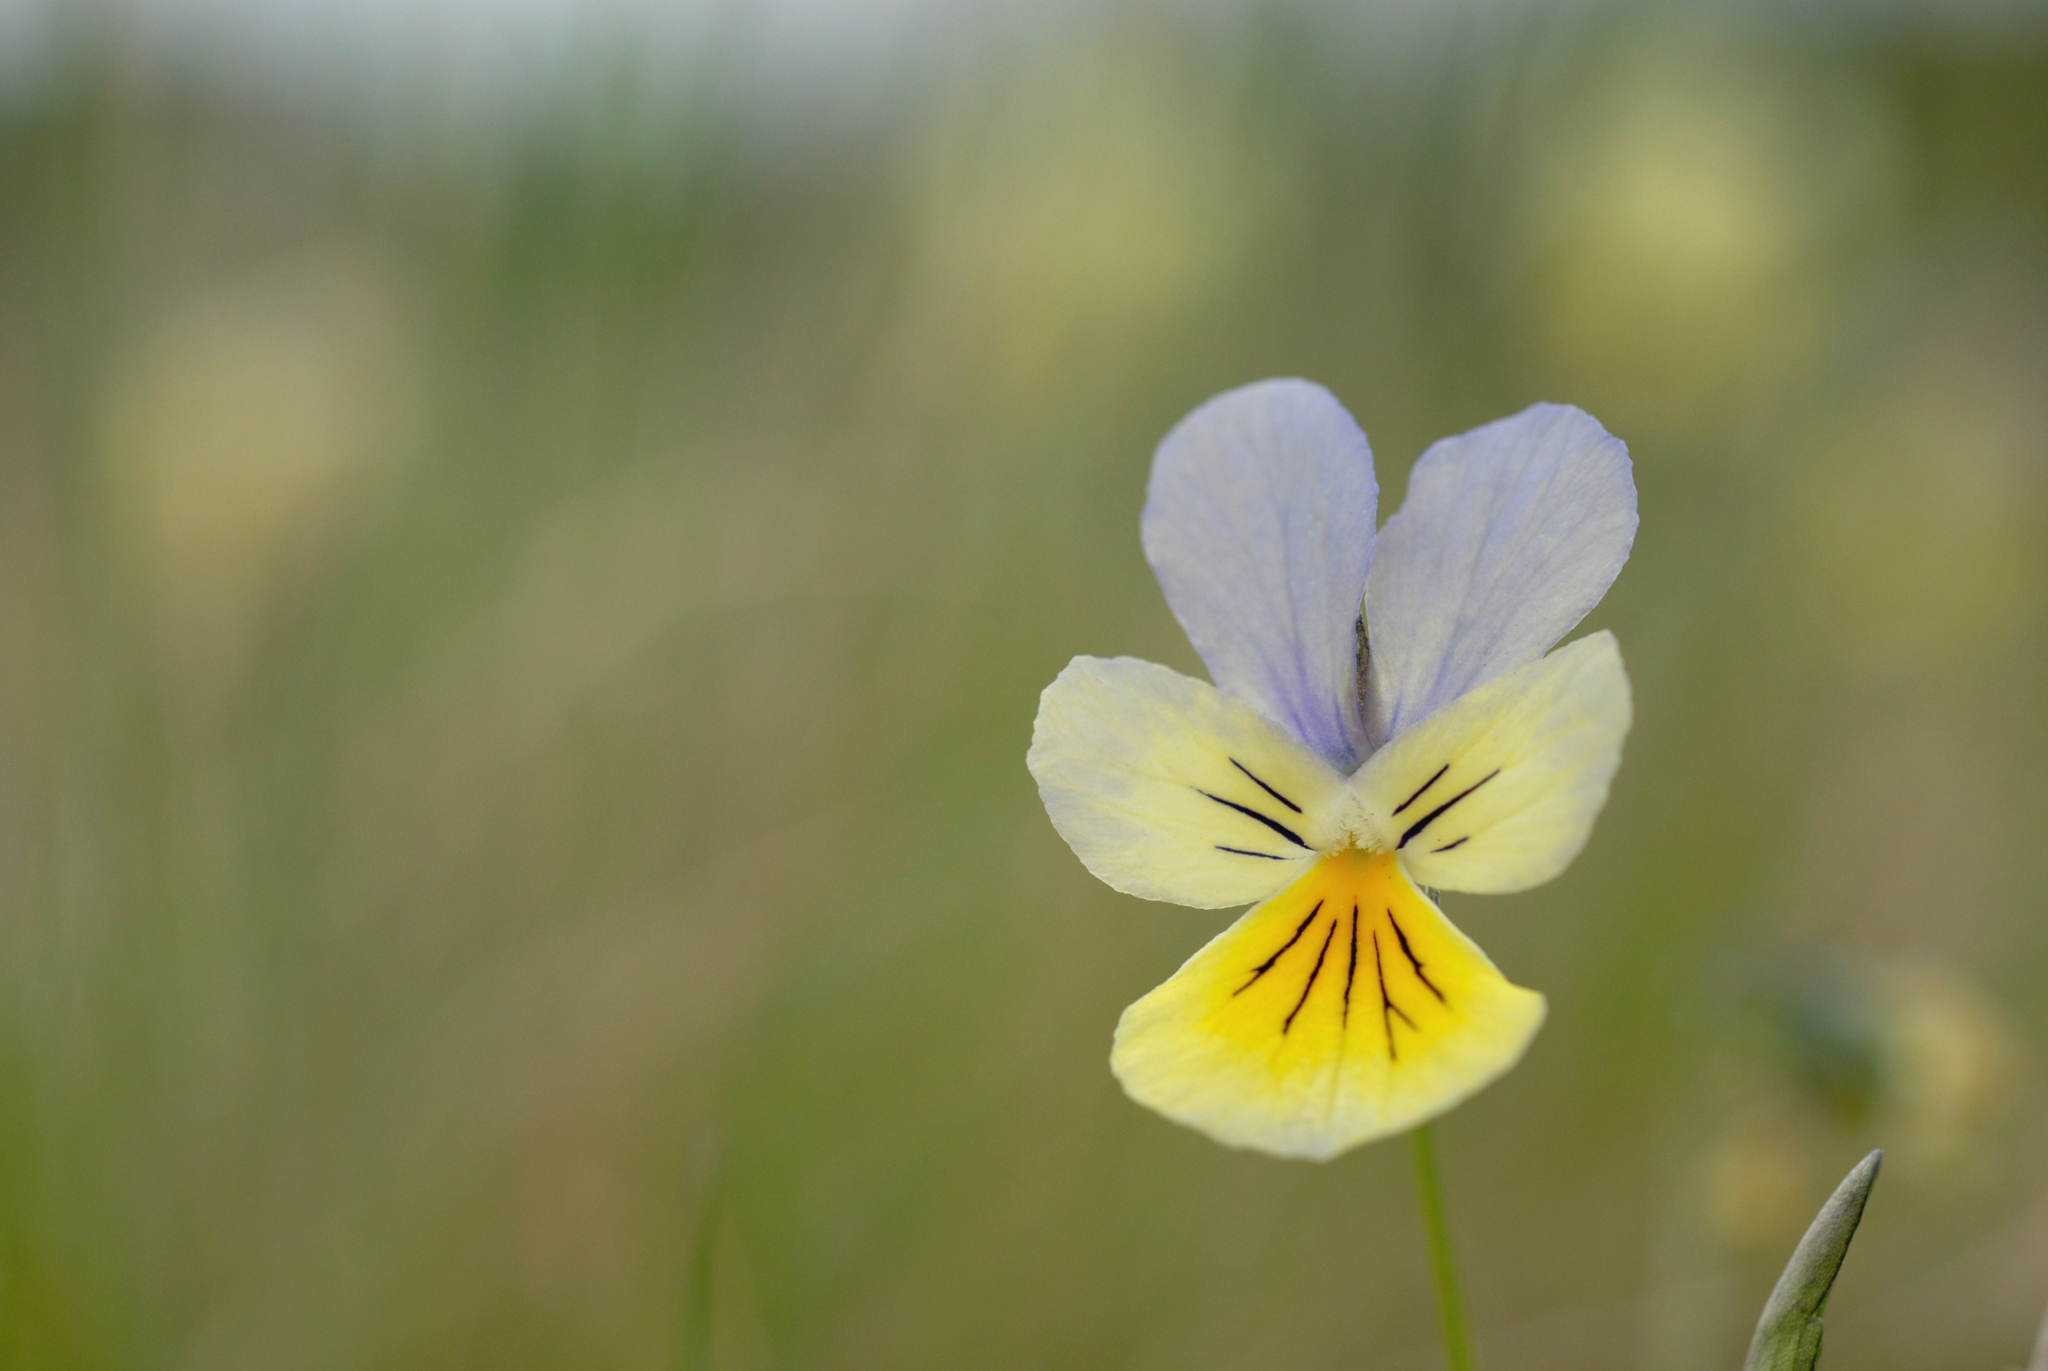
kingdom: Plantae
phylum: Tracheophyta
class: Magnoliopsida
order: Malpighiales
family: Violaceae
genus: Viola
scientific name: Viola lutea
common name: Mountain pansy
